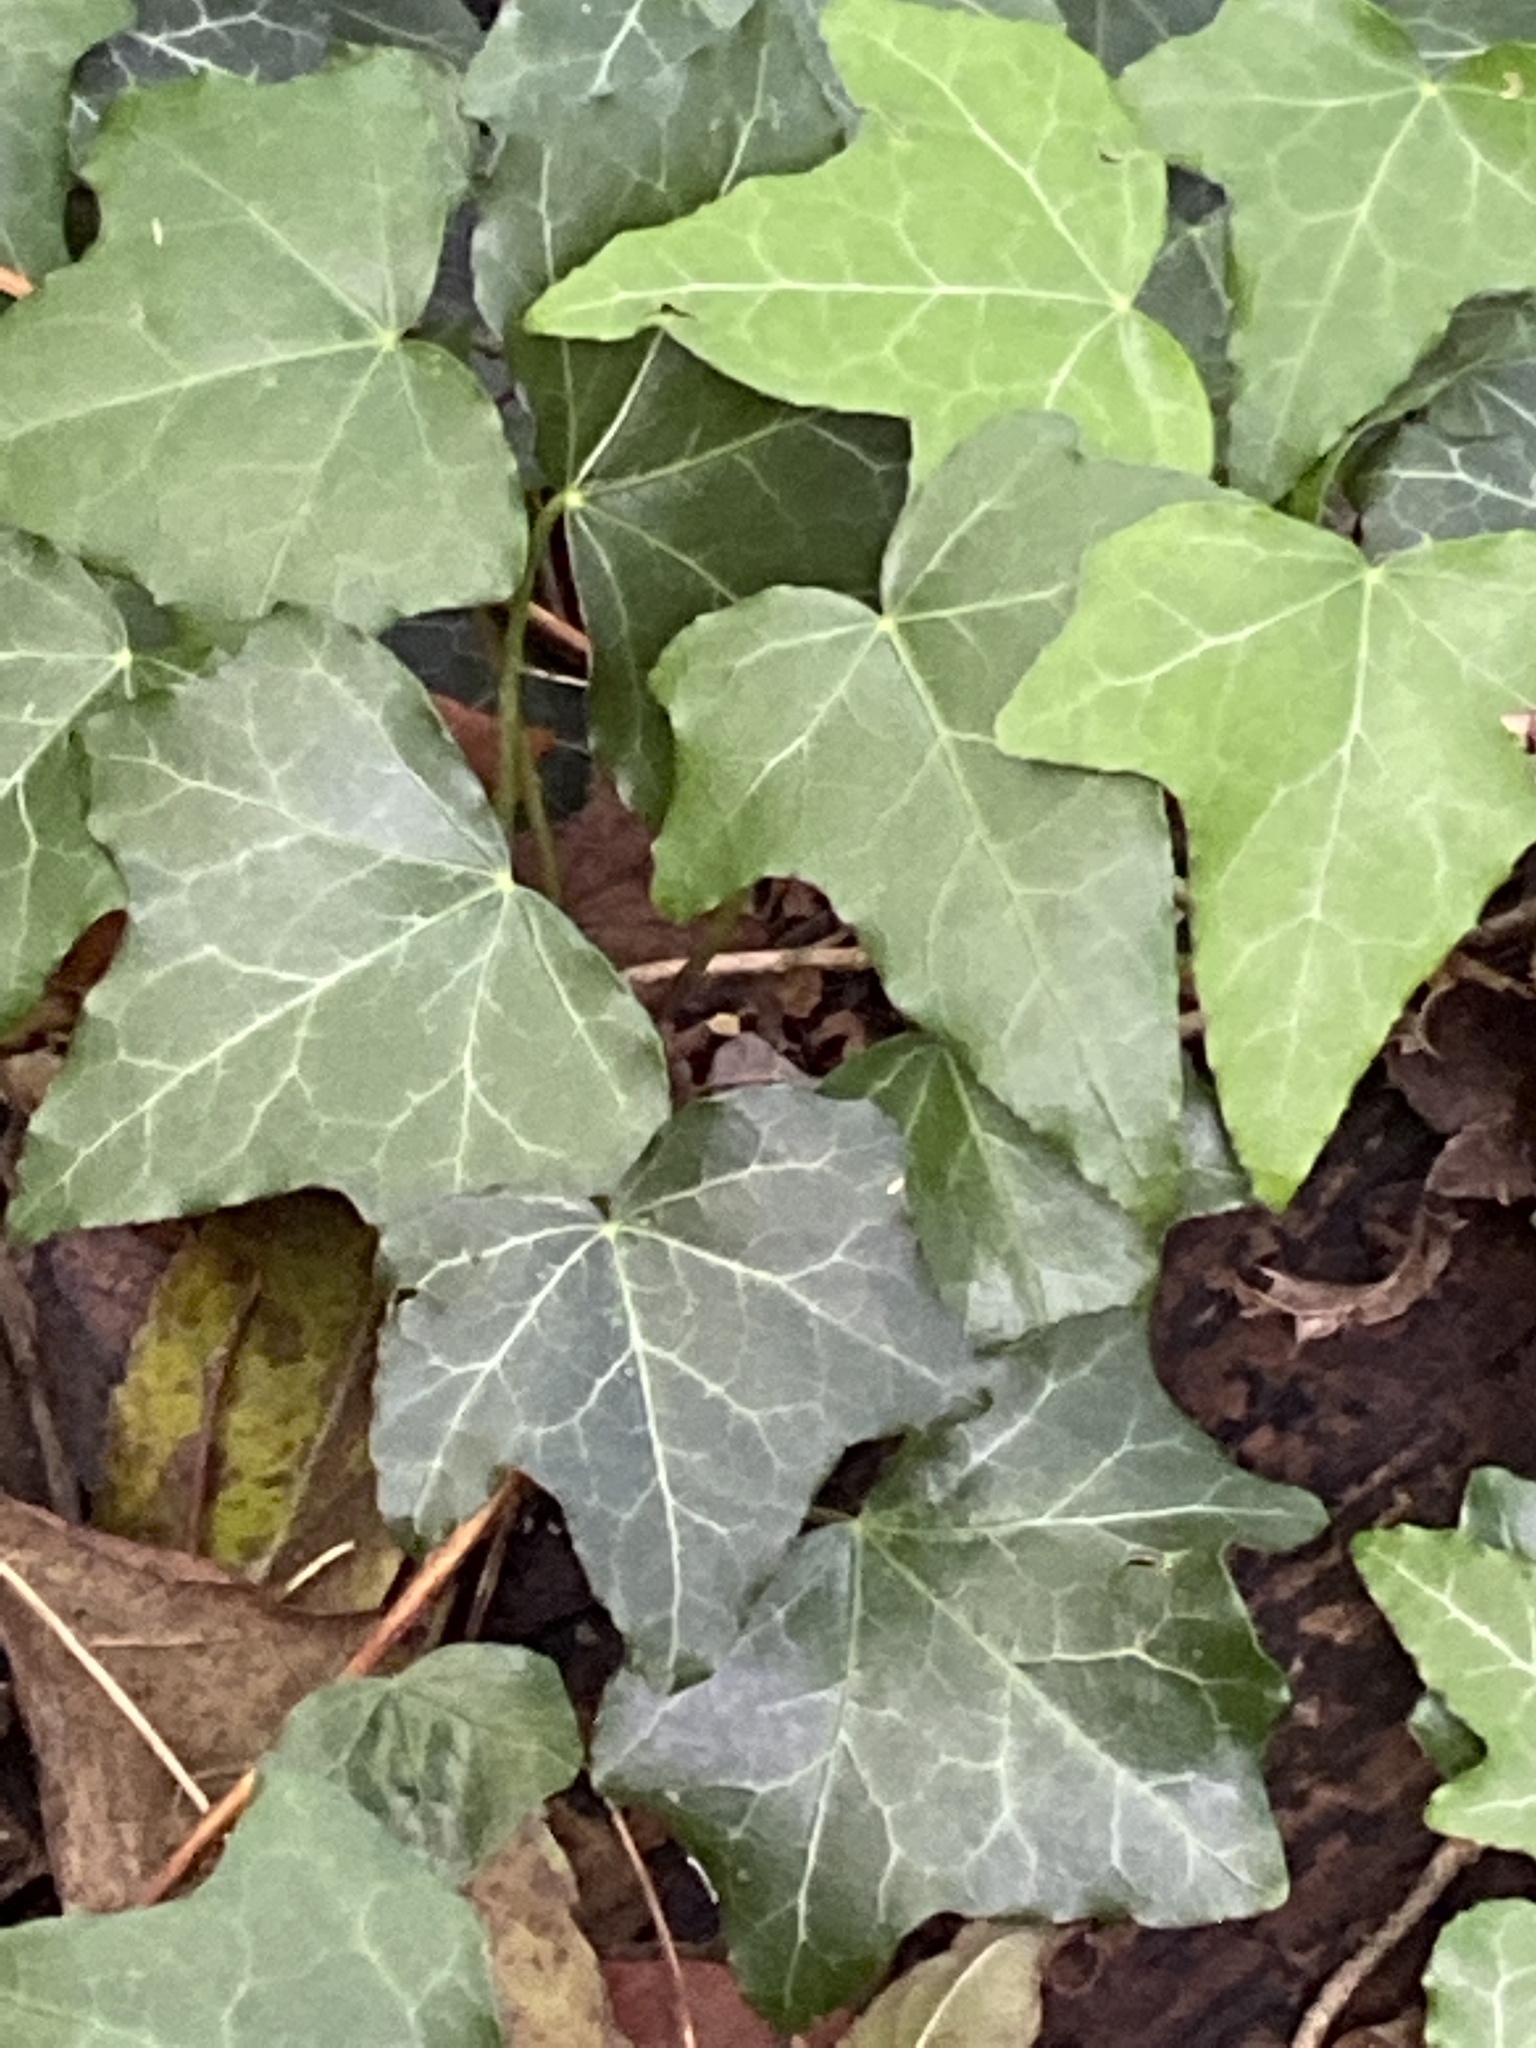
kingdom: Plantae
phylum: Tracheophyta
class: Magnoliopsida
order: Apiales
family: Araliaceae
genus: Hedera
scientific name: Hedera helix
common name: Ivy
